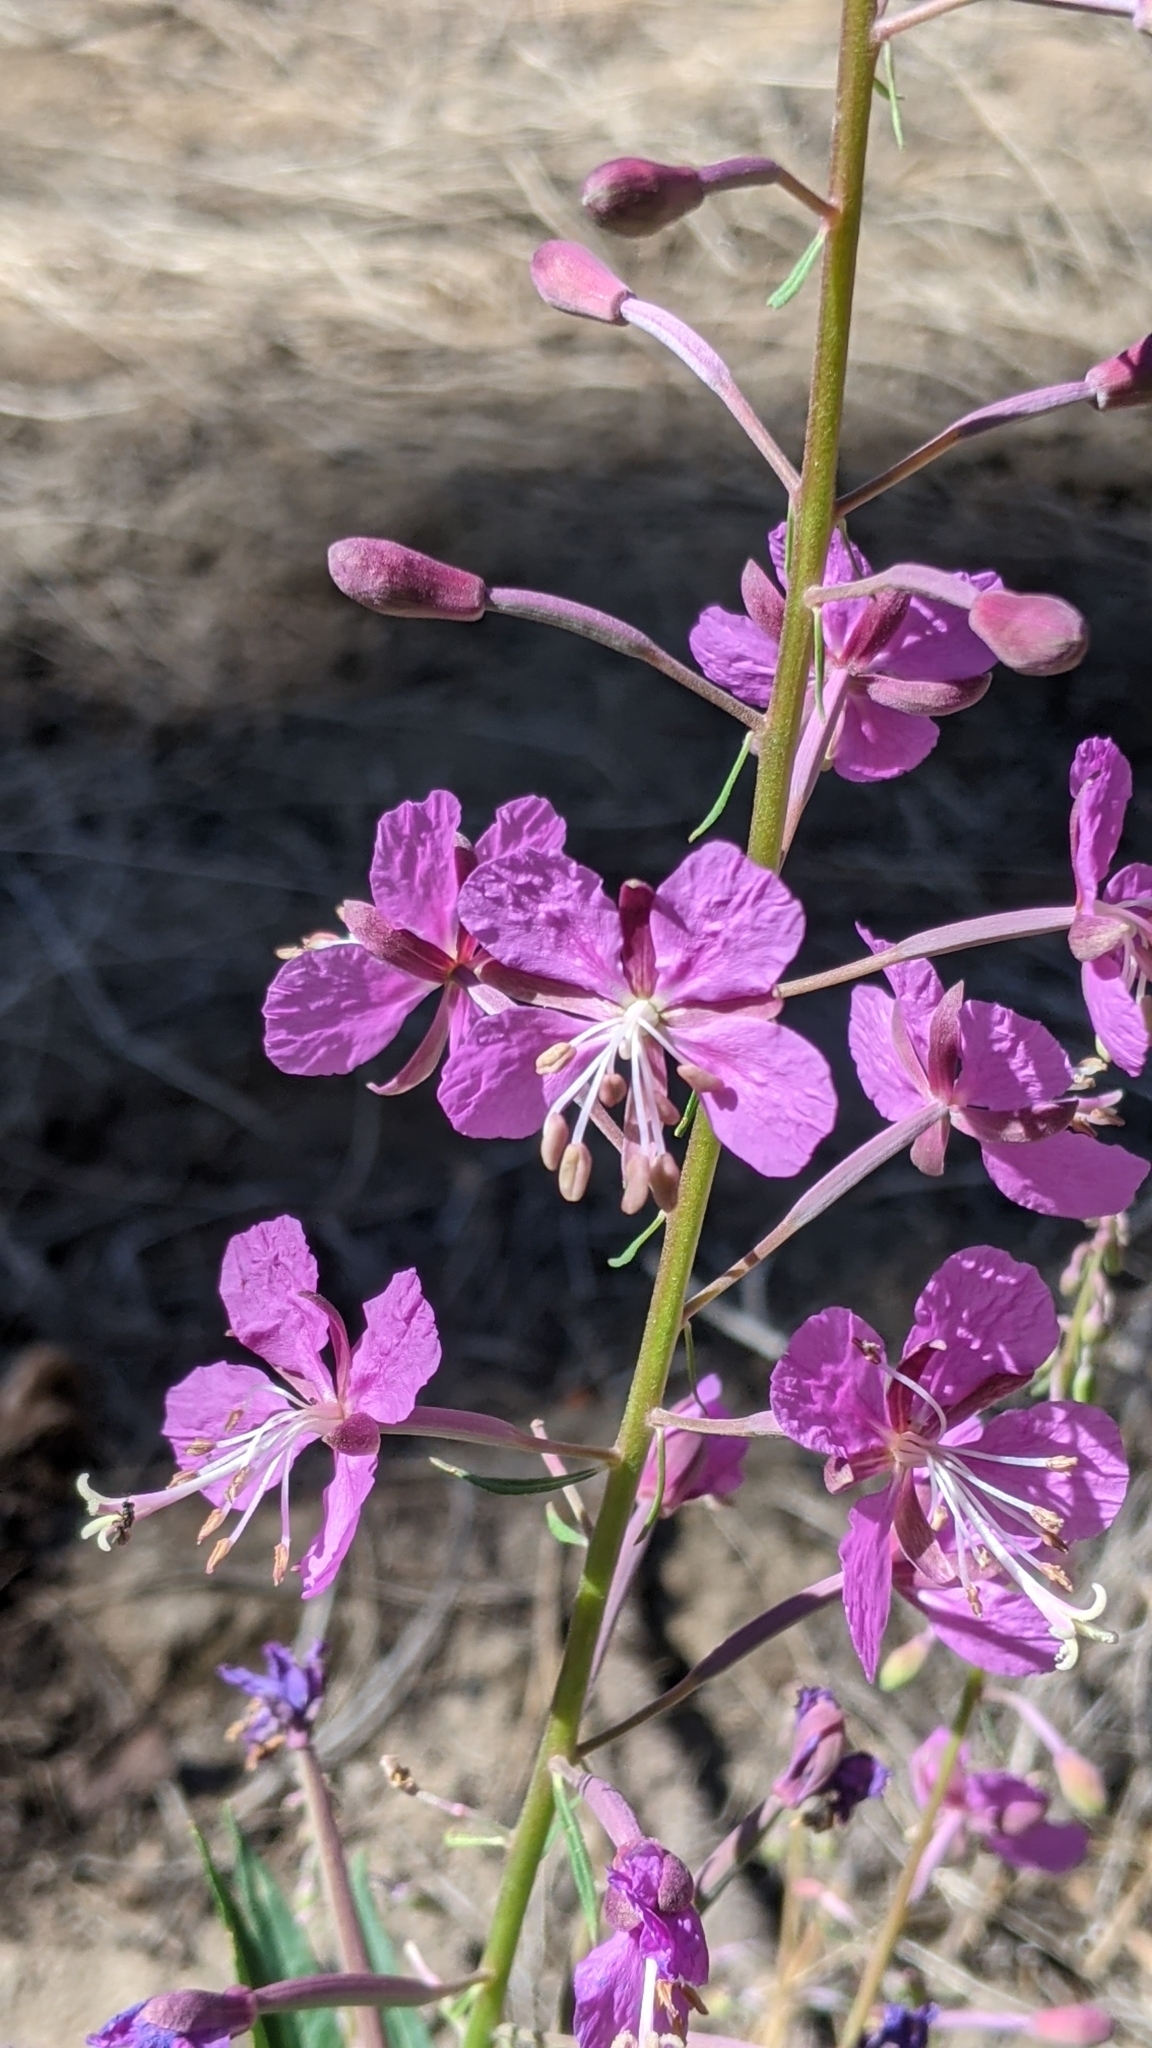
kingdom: Plantae
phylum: Tracheophyta
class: Magnoliopsida
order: Myrtales
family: Onagraceae
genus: Chamaenerion
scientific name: Chamaenerion angustifolium
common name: Fireweed
